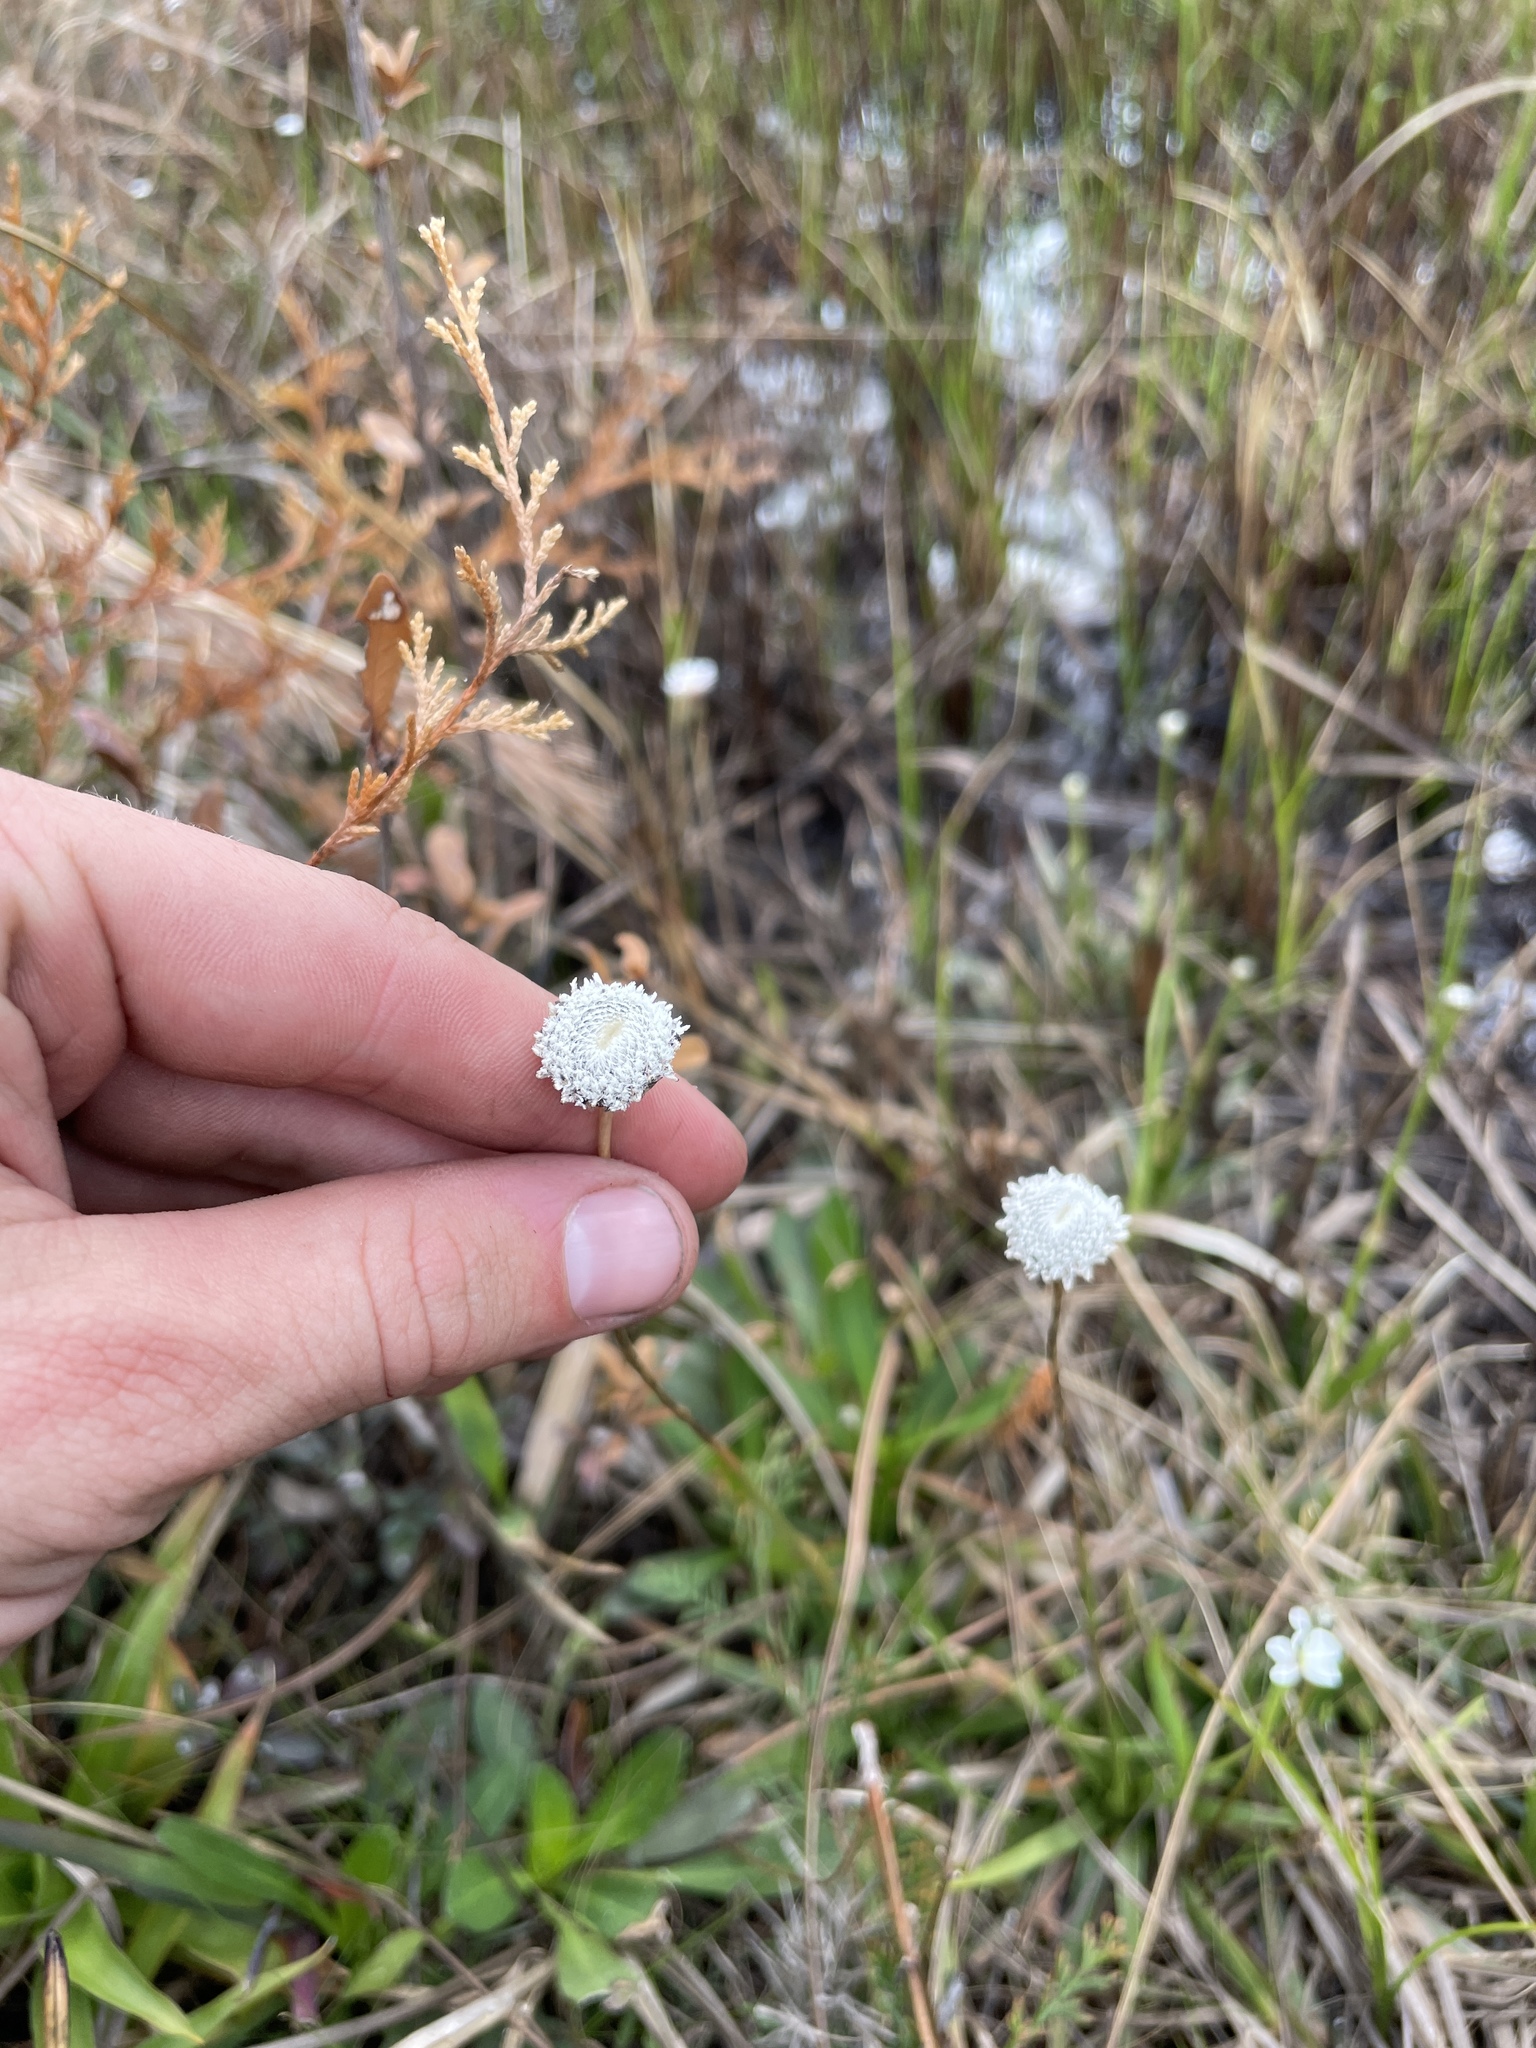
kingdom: Plantae
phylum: Tracheophyta
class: Liliopsida
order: Poales
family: Eriocaulaceae
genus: Eriocaulon
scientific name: Eriocaulon compressum
